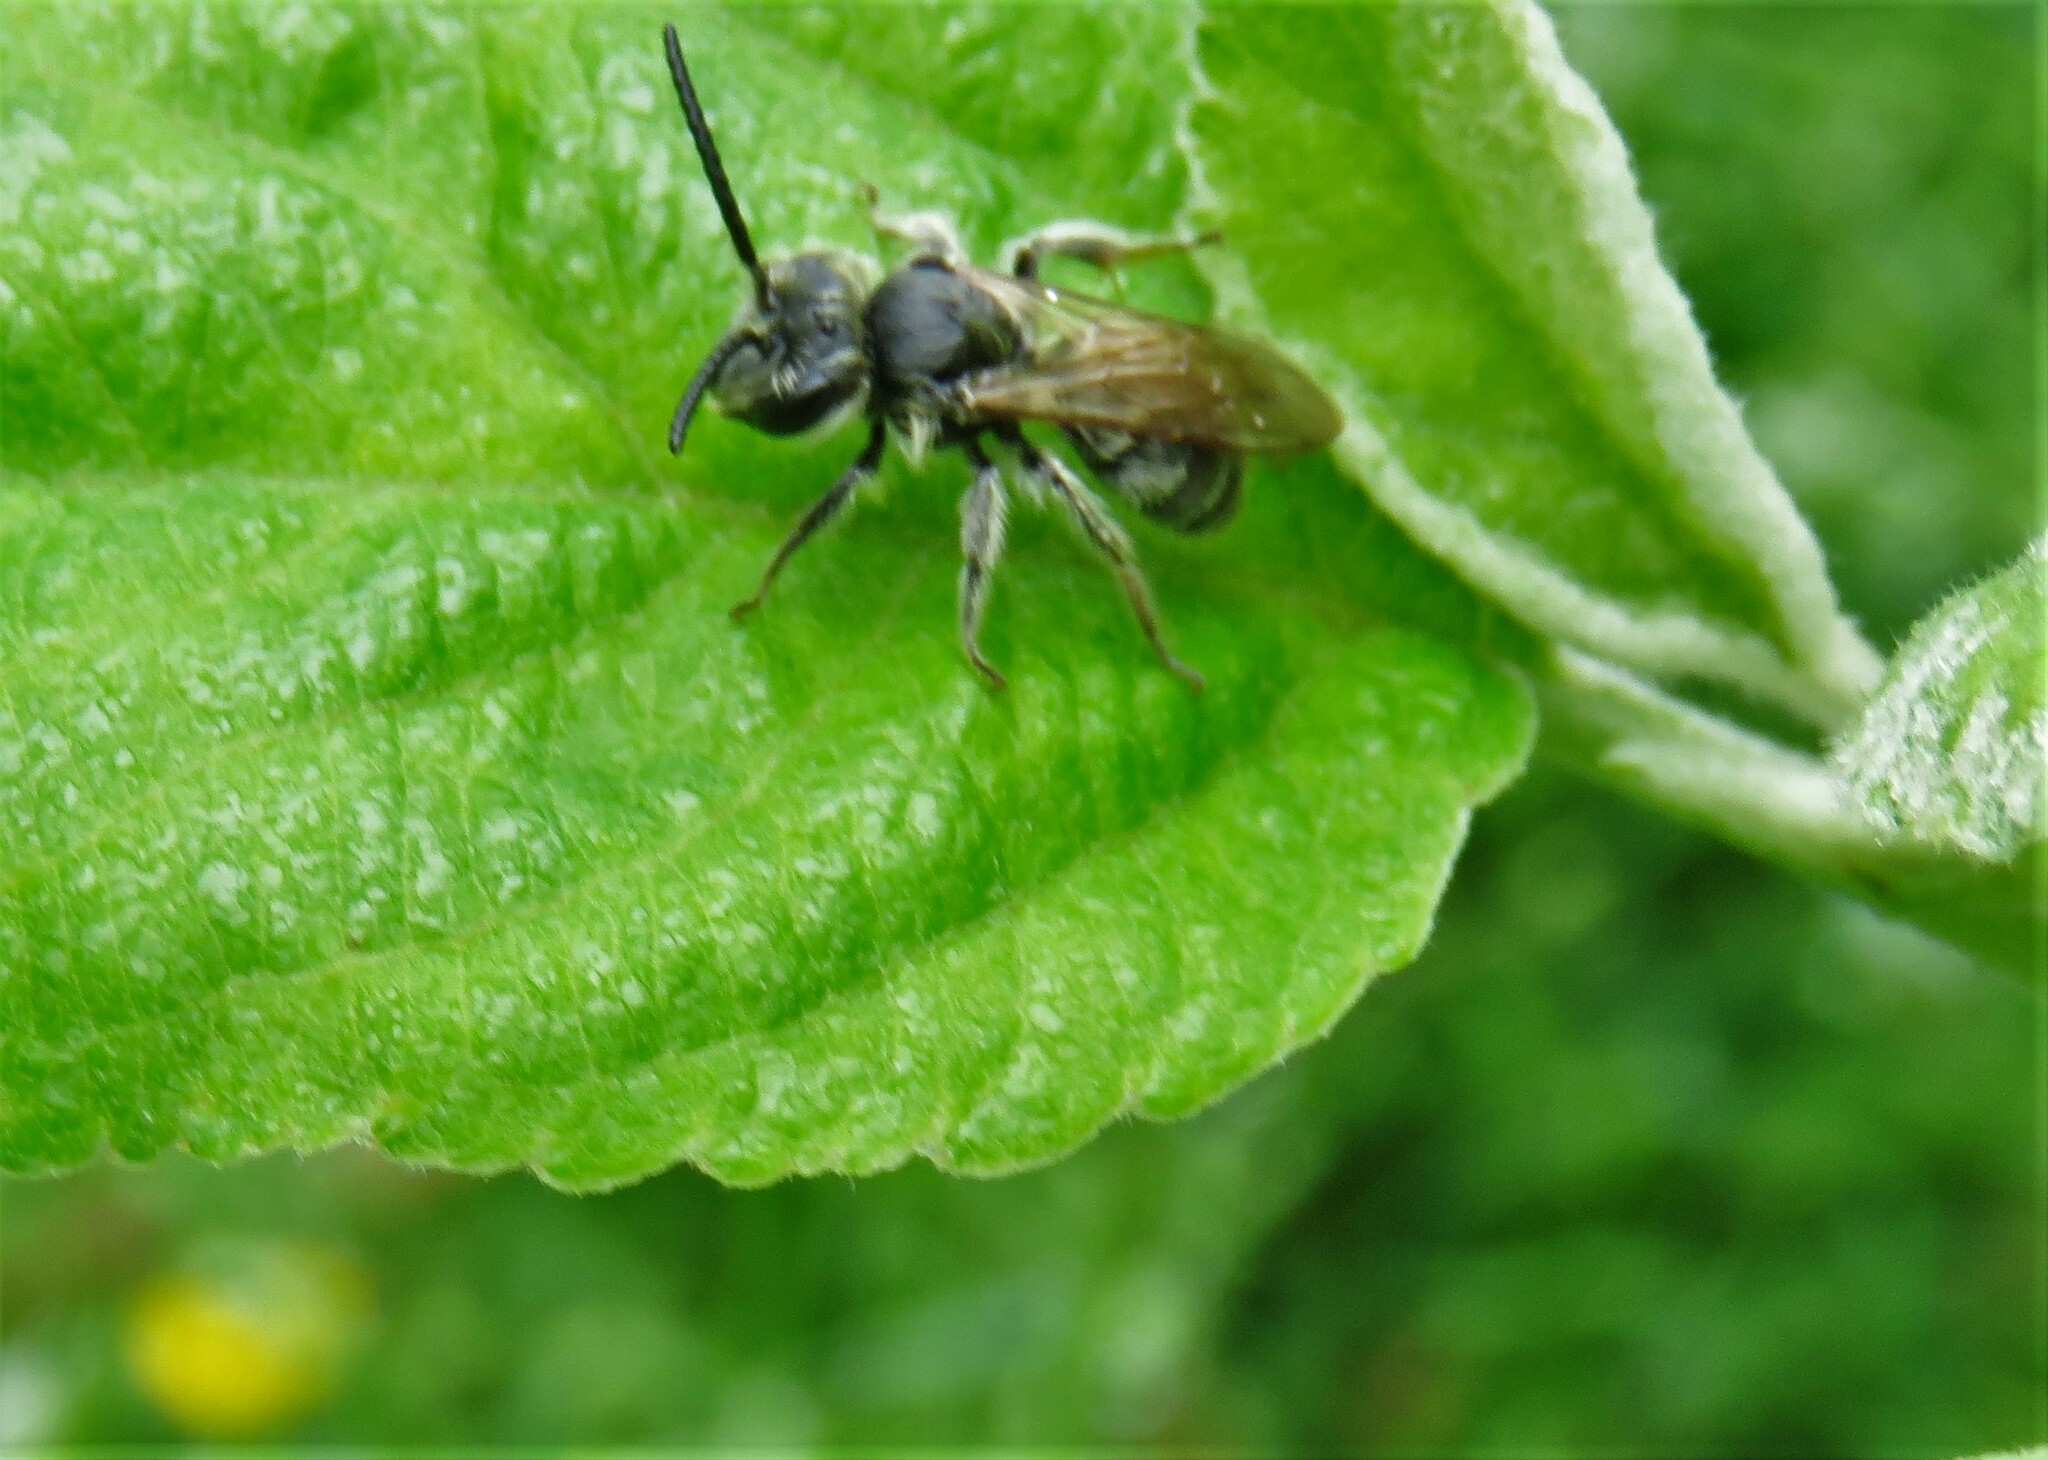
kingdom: Animalia
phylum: Arthropoda
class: Insecta
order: Hymenoptera
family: Andrenidae
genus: Andrena
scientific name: Andrena wilkella
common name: Wilke's mining bee
